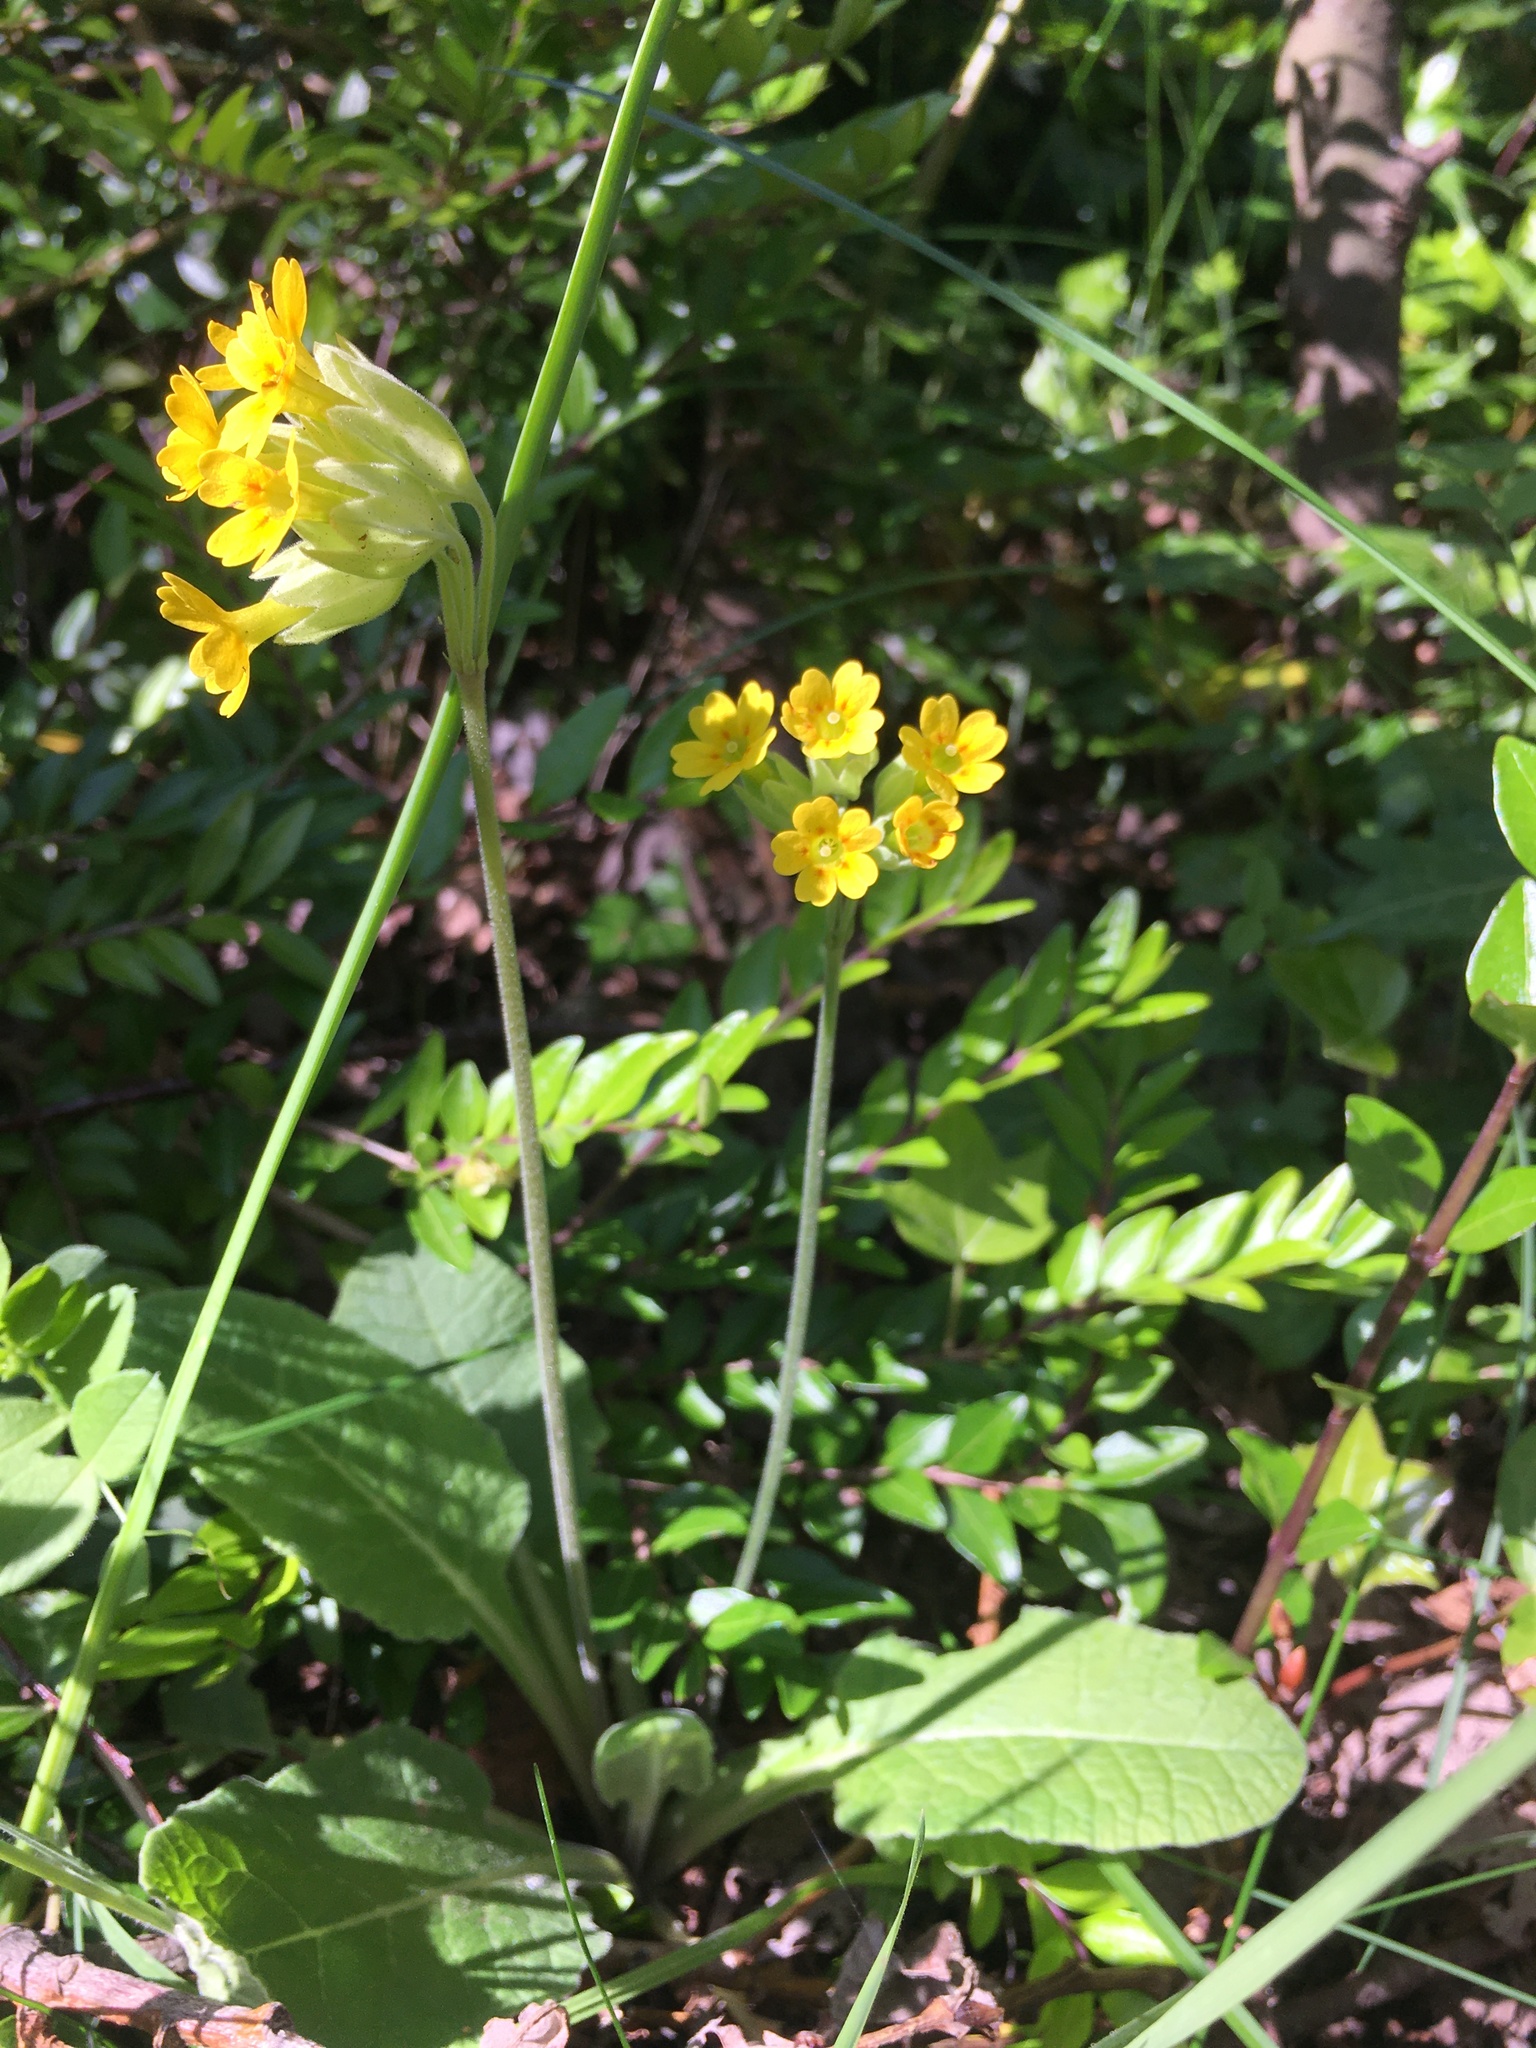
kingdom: Plantae
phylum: Tracheophyta
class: Magnoliopsida
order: Ericales
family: Primulaceae
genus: Primula
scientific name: Primula veris
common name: Cowslip
